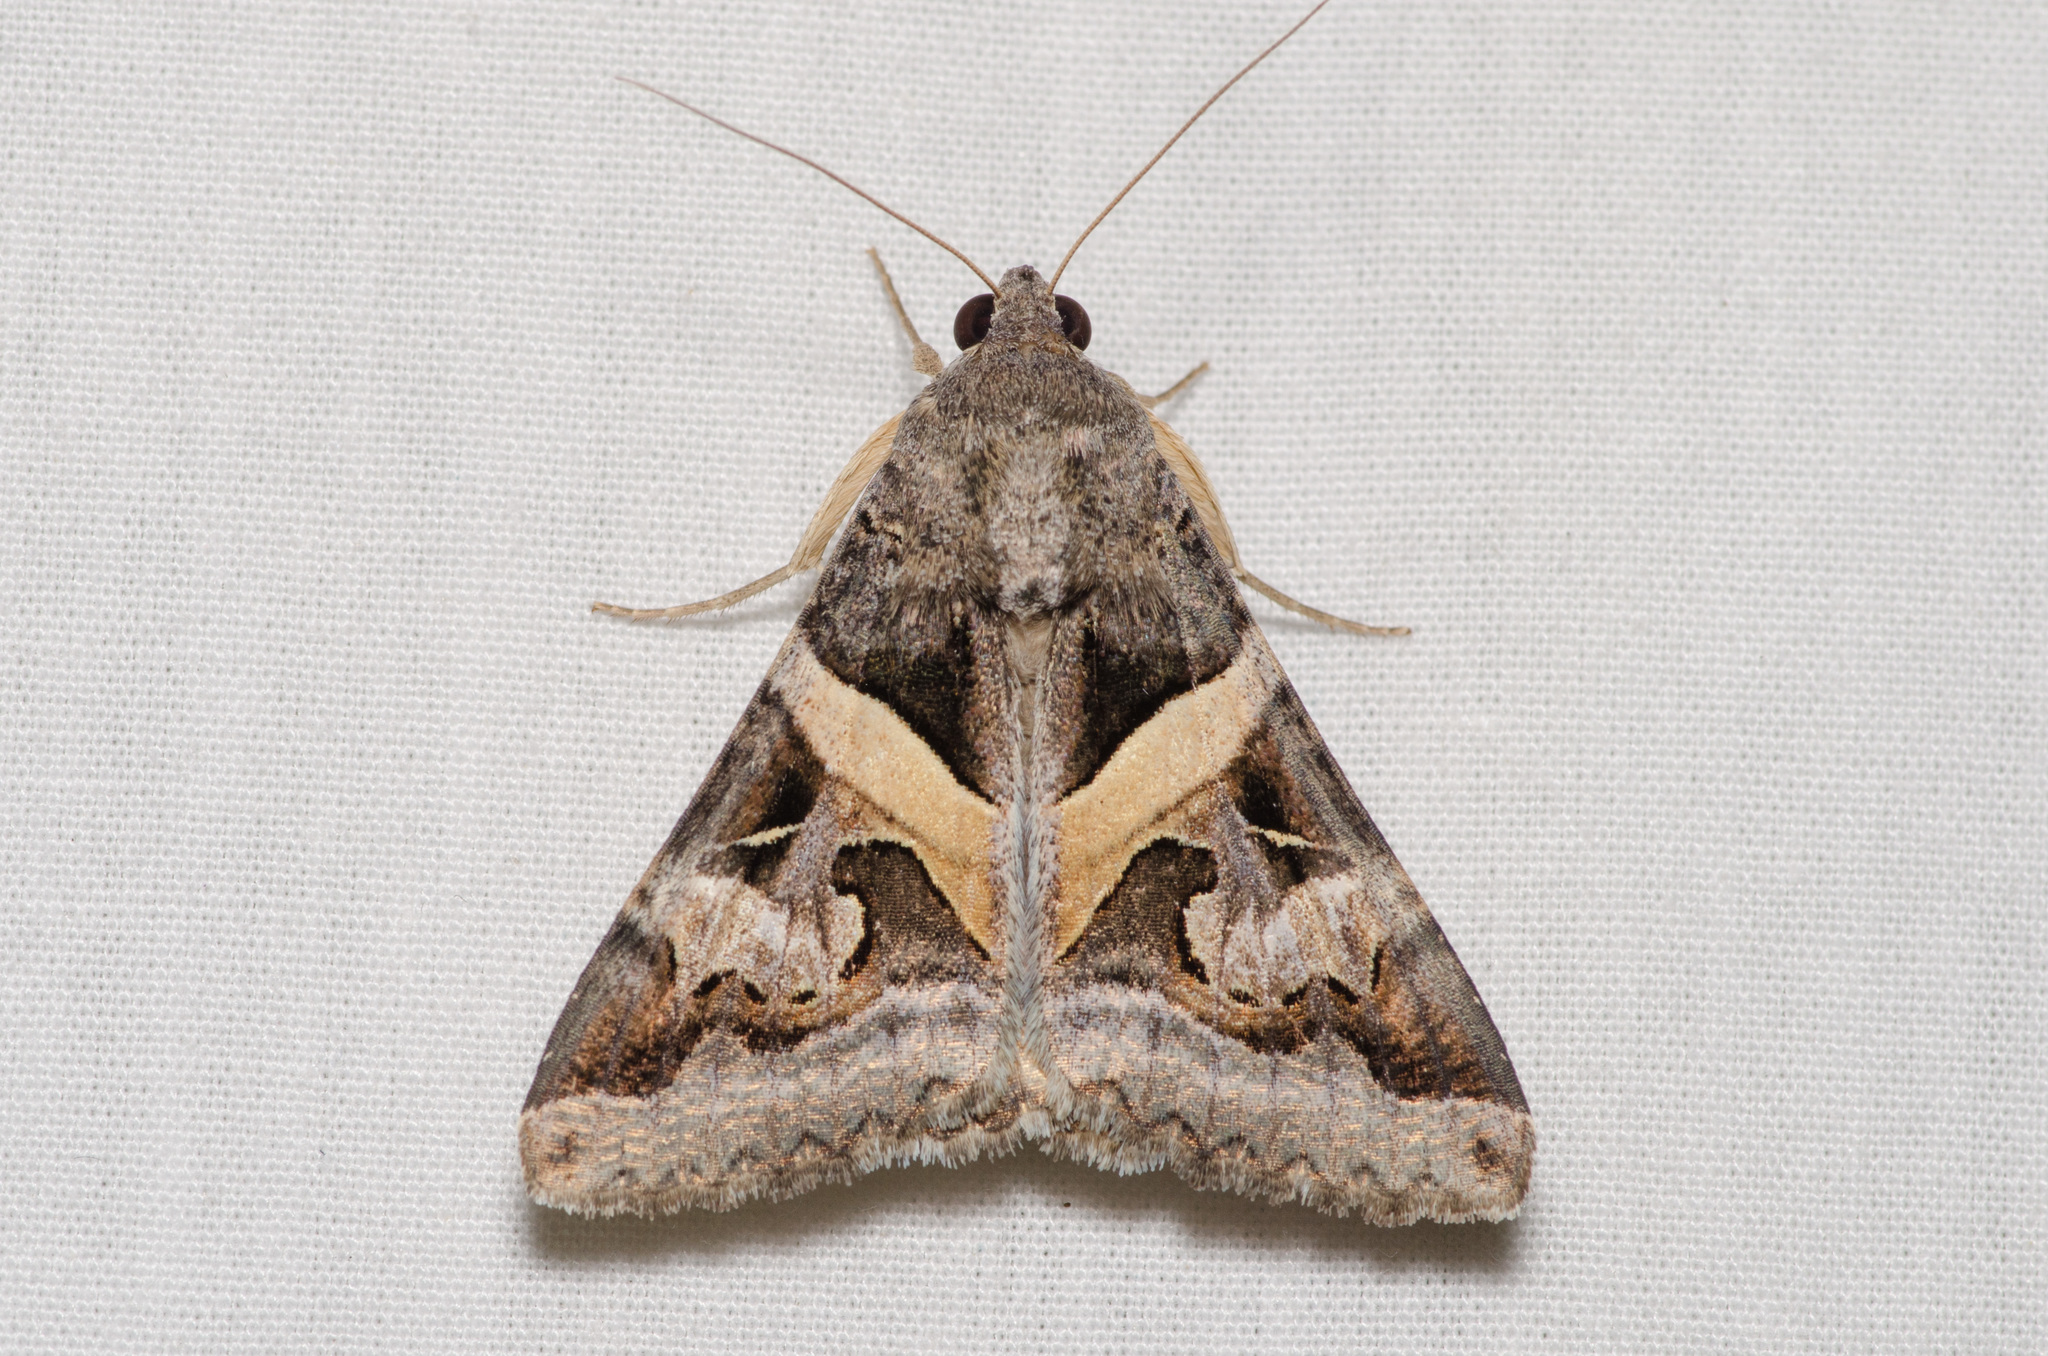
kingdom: Animalia
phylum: Arthropoda
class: Insecta
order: Lepidoptera
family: Erebidae
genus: Melipotis
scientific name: Melipotis indomita
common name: Moth
